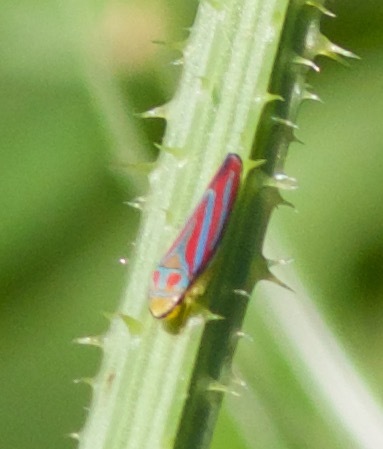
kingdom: Animalia
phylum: Arthropoda
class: Insecta
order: Hemiptera
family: Cicadellidae
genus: Graphocephala
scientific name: Graphocephala coccinea
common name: Candy-striped leafhopper
